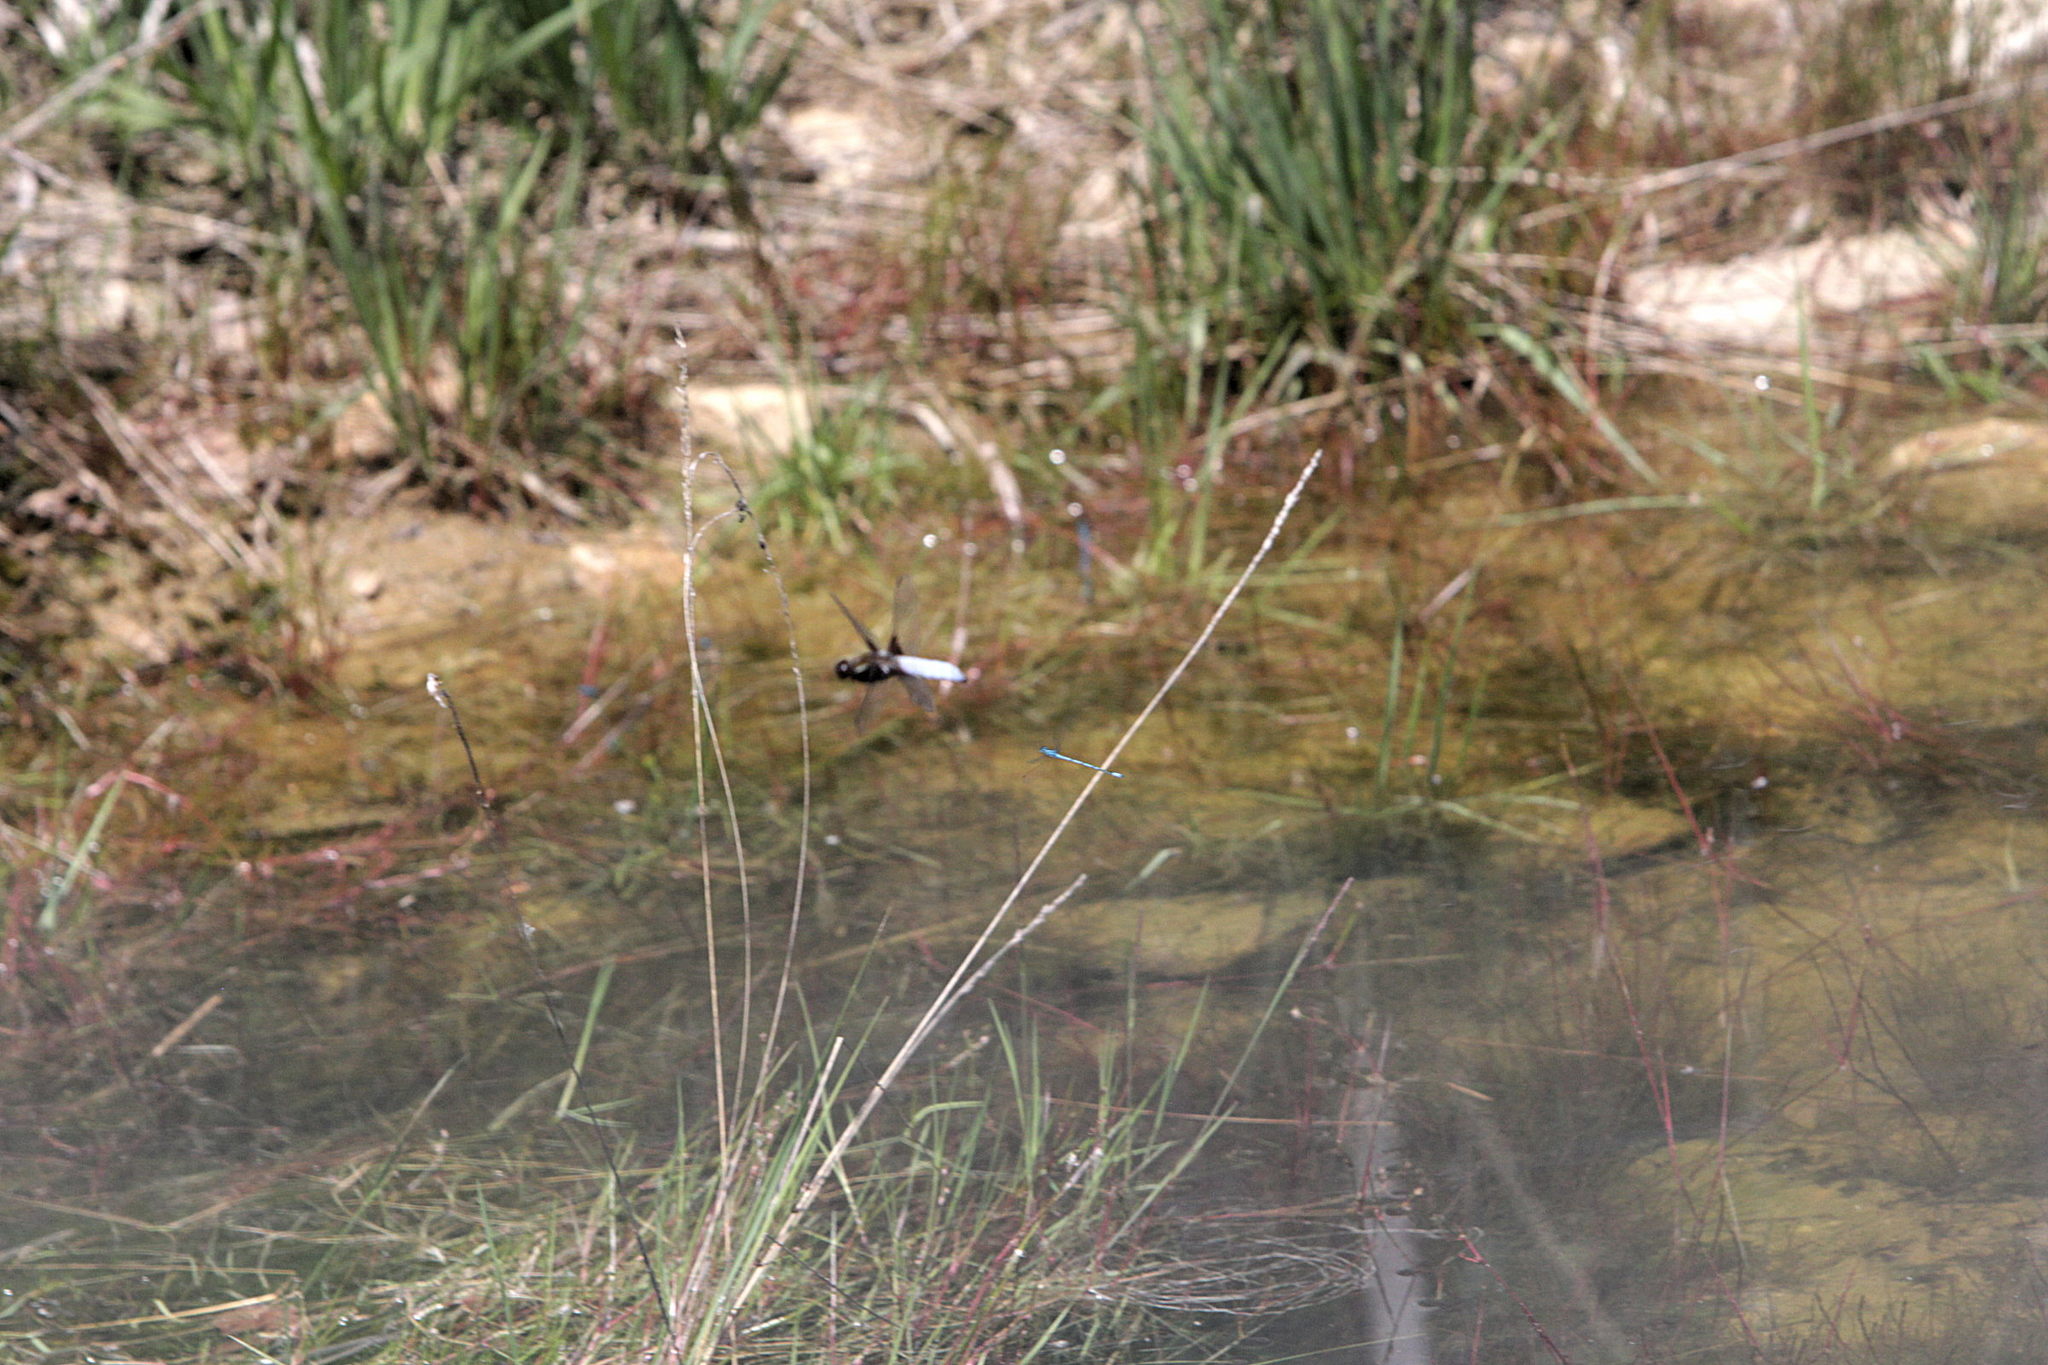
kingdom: Animalia
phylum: Arthropoda
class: Insecta
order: Odonata
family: Libellulidae
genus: Libellula
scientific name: Libellula depressa
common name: Broad-bodied chaser
